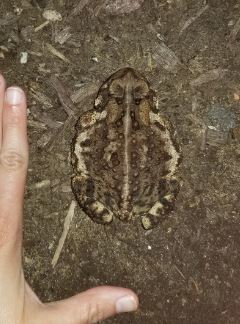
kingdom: Animalia
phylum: Chordata
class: Amphibia
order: Anura
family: Bufonidae
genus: Anaxyrus
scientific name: Anaxyrus americanus
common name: American toad
